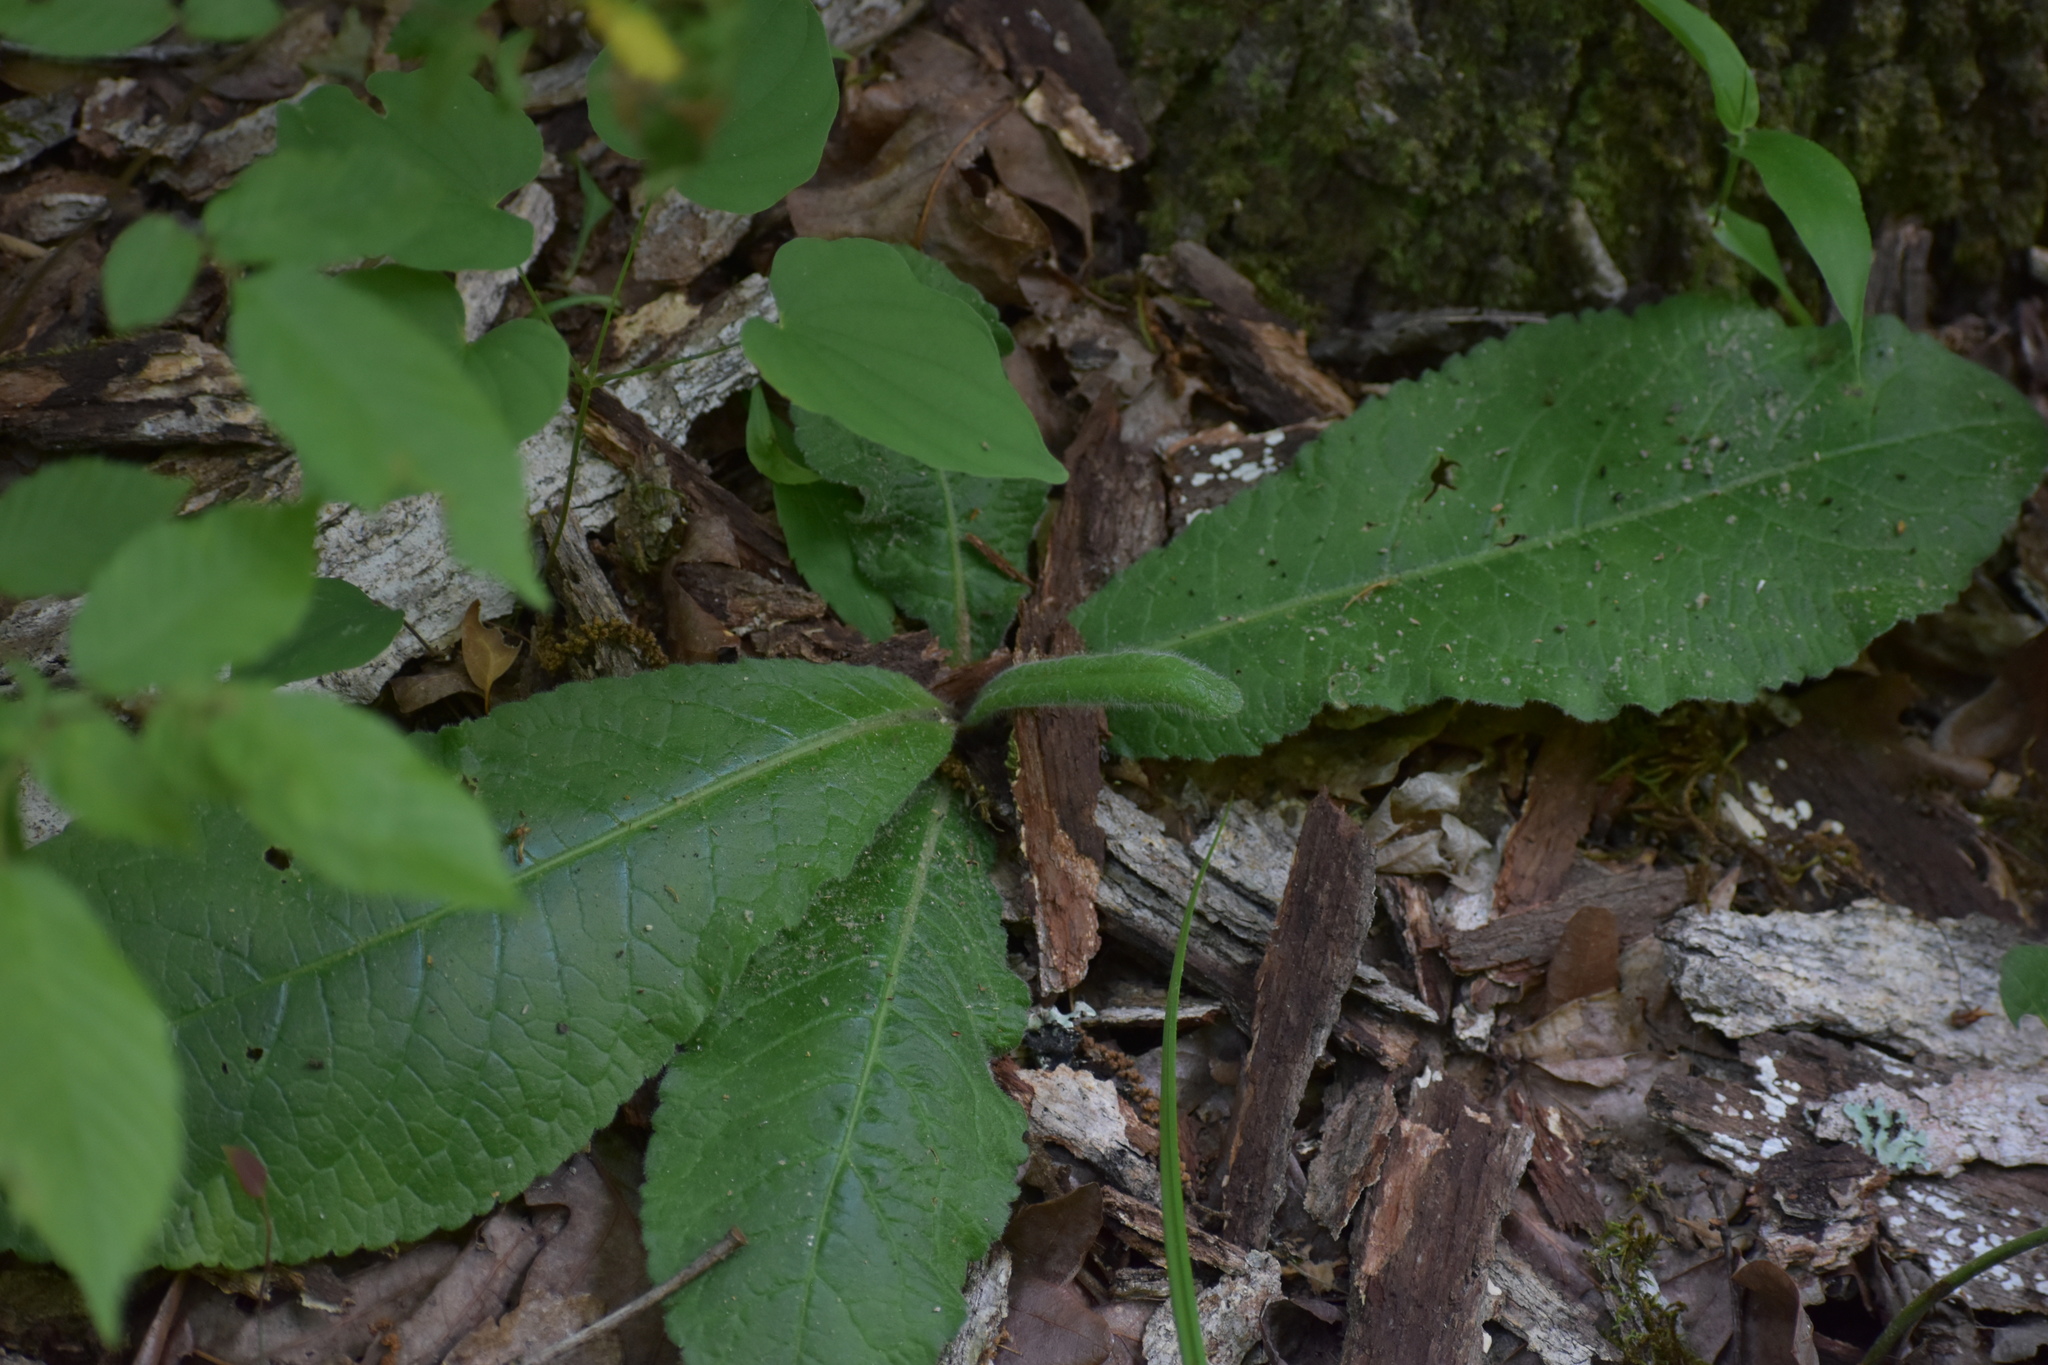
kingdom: Plantae
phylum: Tracheophyta
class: Magnoliopsida
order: Asterales
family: Asteraceae
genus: Elephantopus
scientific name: Elephantopus tomentosus
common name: Tobacco-weed
